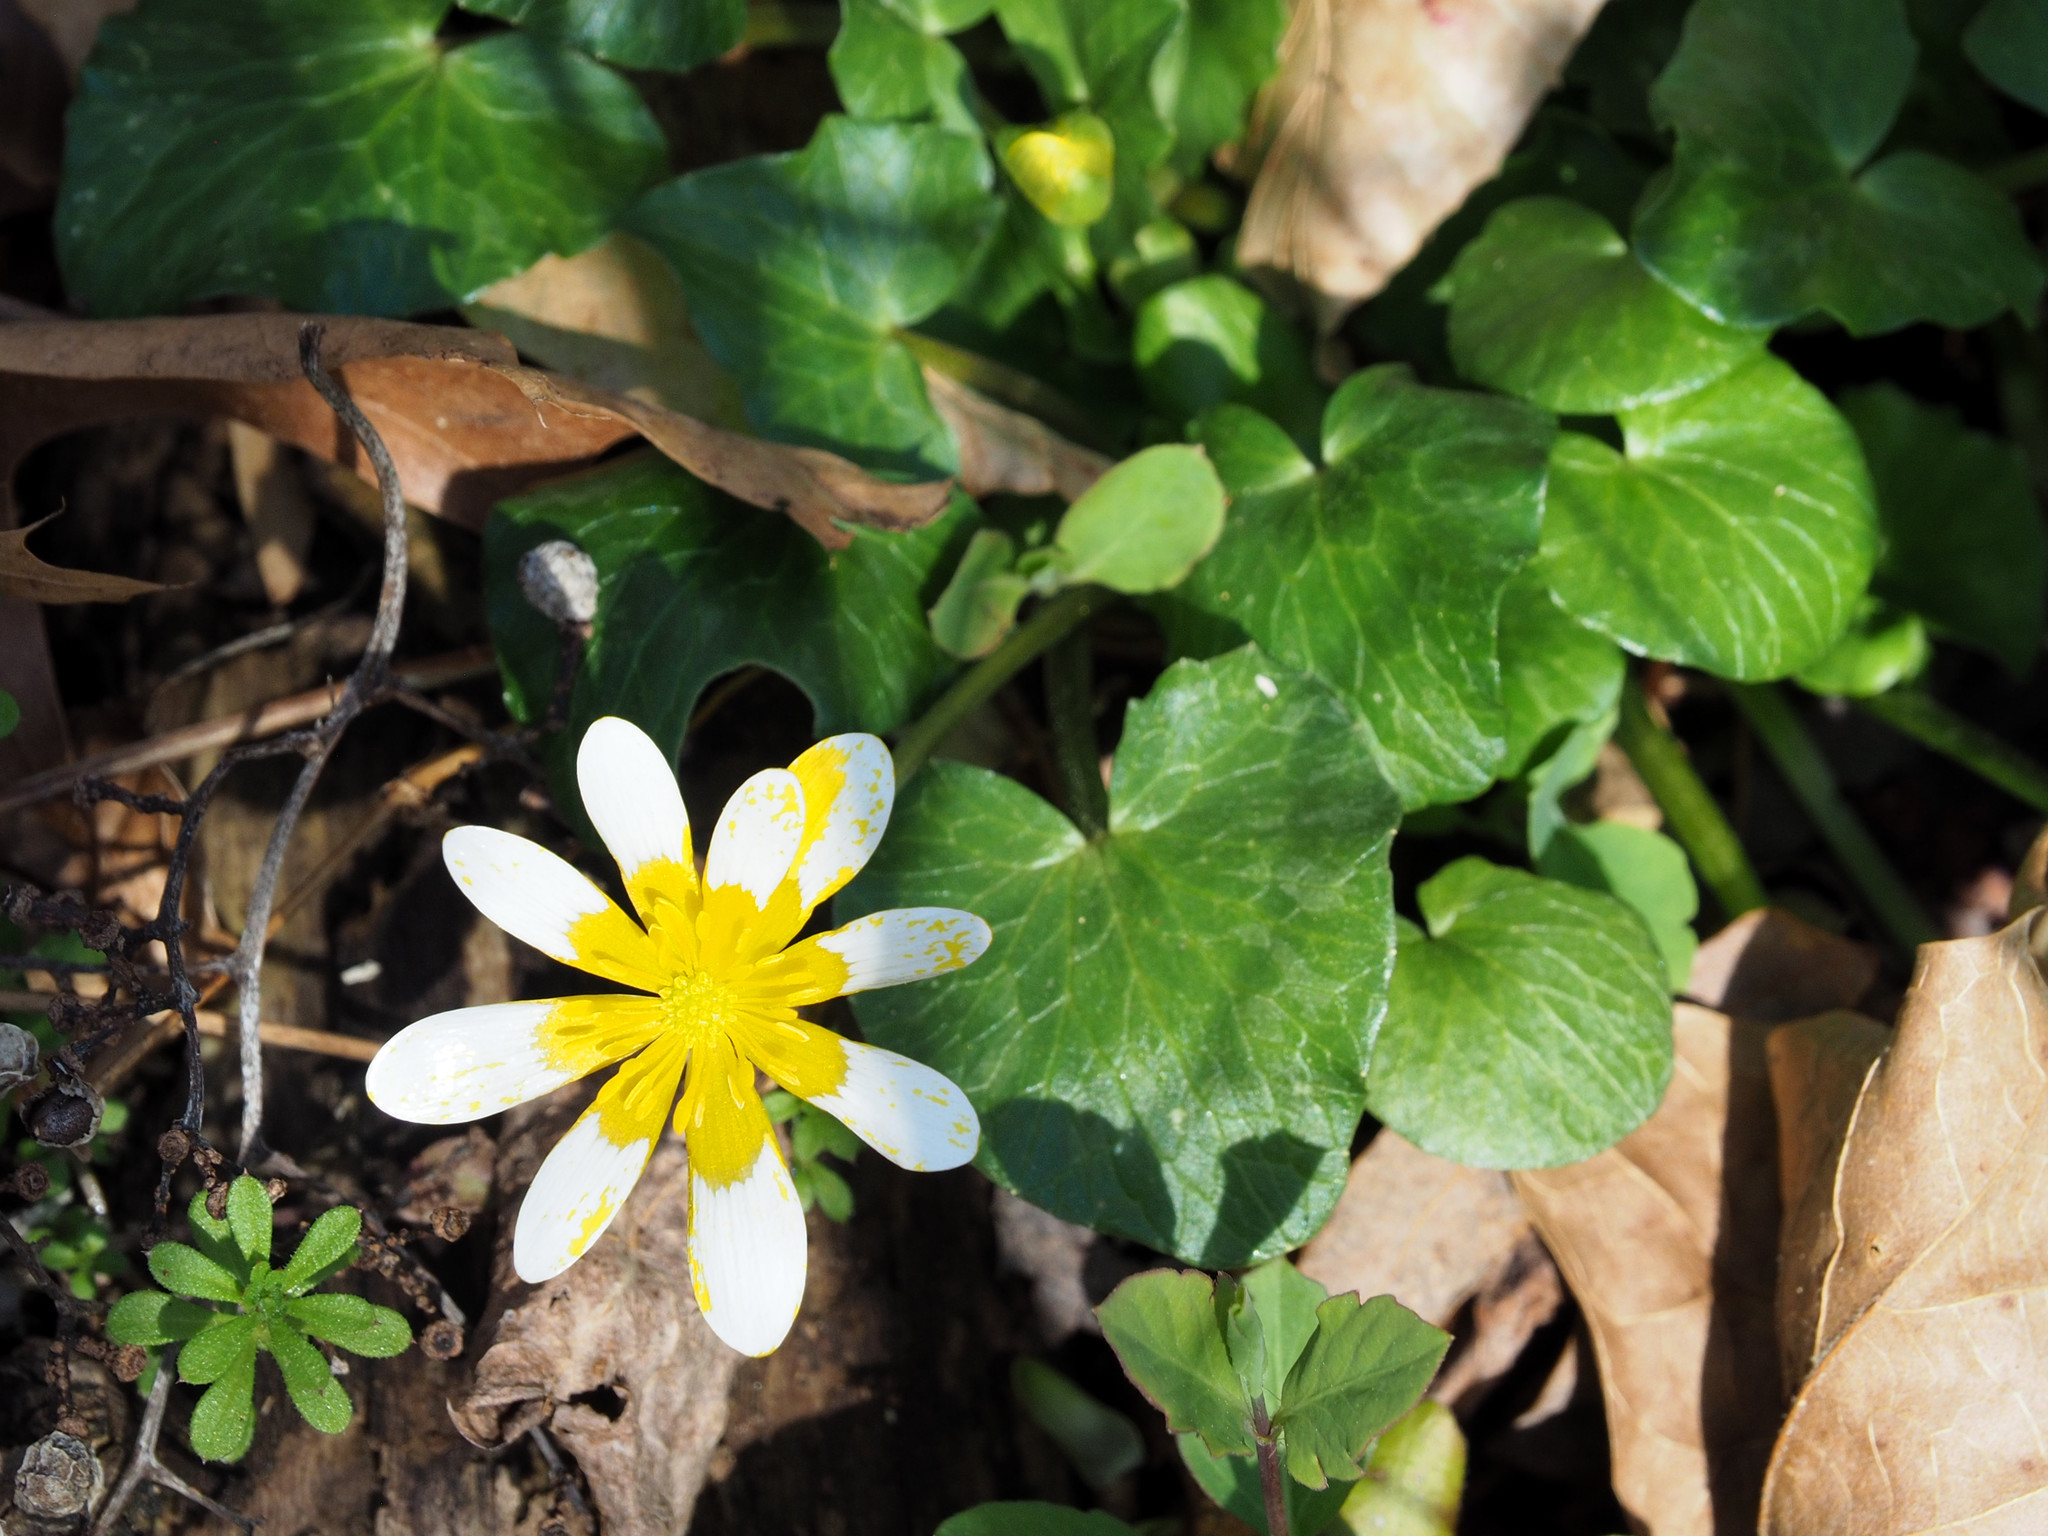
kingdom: Plantae
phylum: Tracheophyta
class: Magnoliopsida
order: Ranunculales
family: Ranunculaceae
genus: Ficaria
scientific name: Ficaria verna
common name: Lesser celandine
